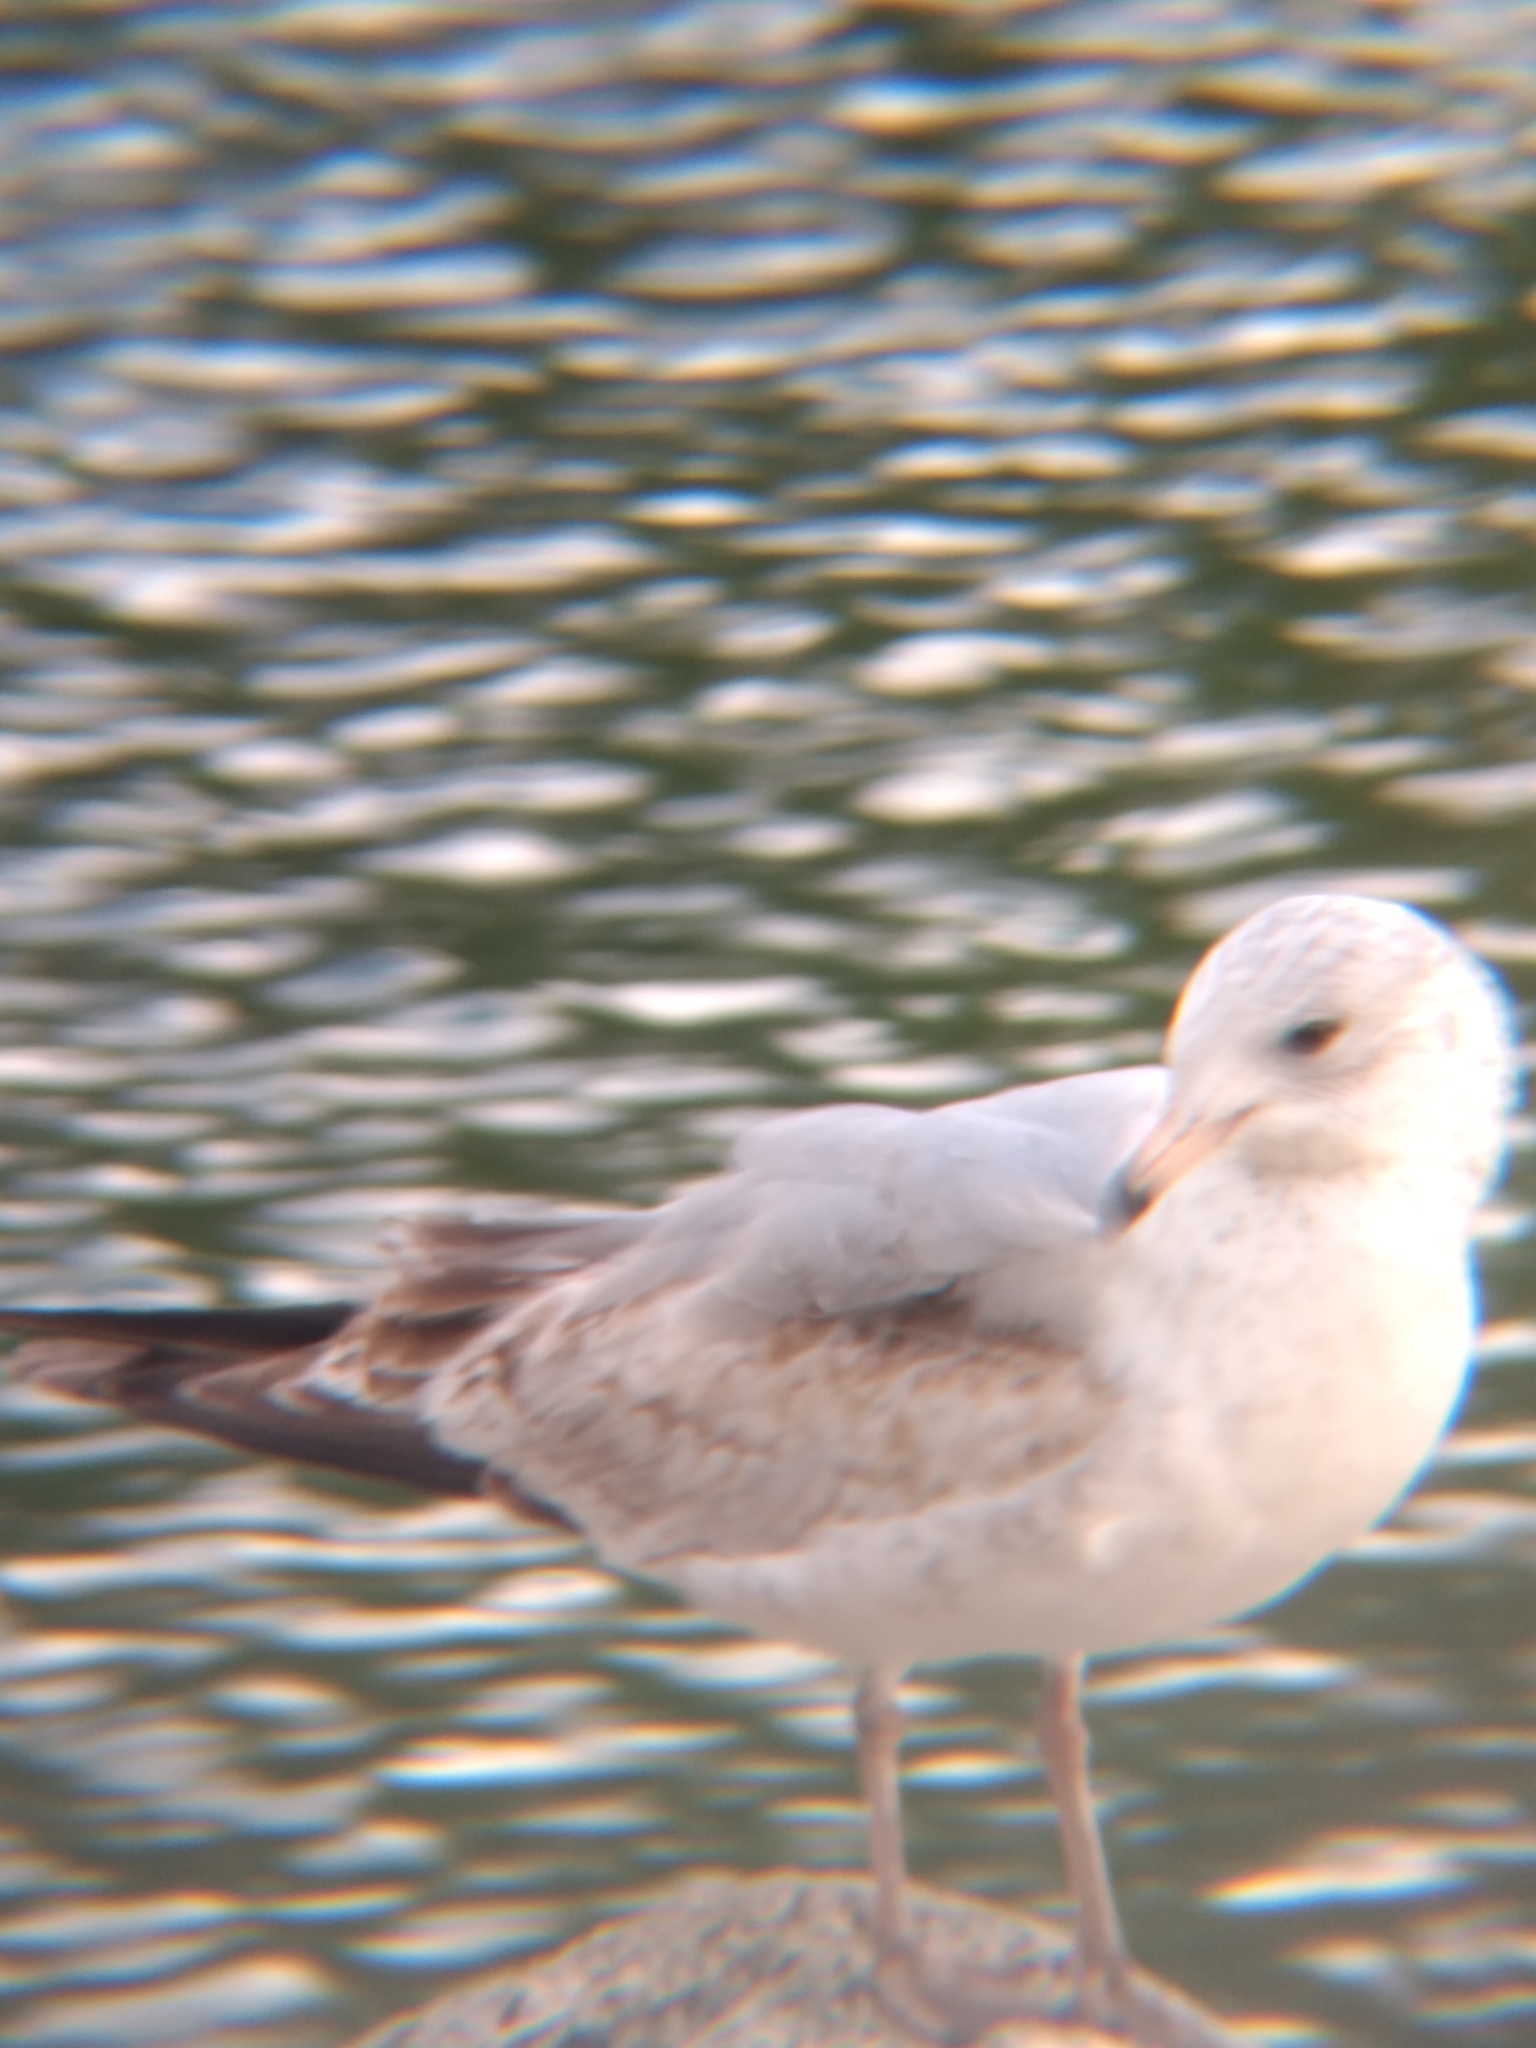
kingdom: Animalia
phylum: Chordata
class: Aves
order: Charadriiformes
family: Laridae
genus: Larus
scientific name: Larus delawarensis
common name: Ring-billed gull
